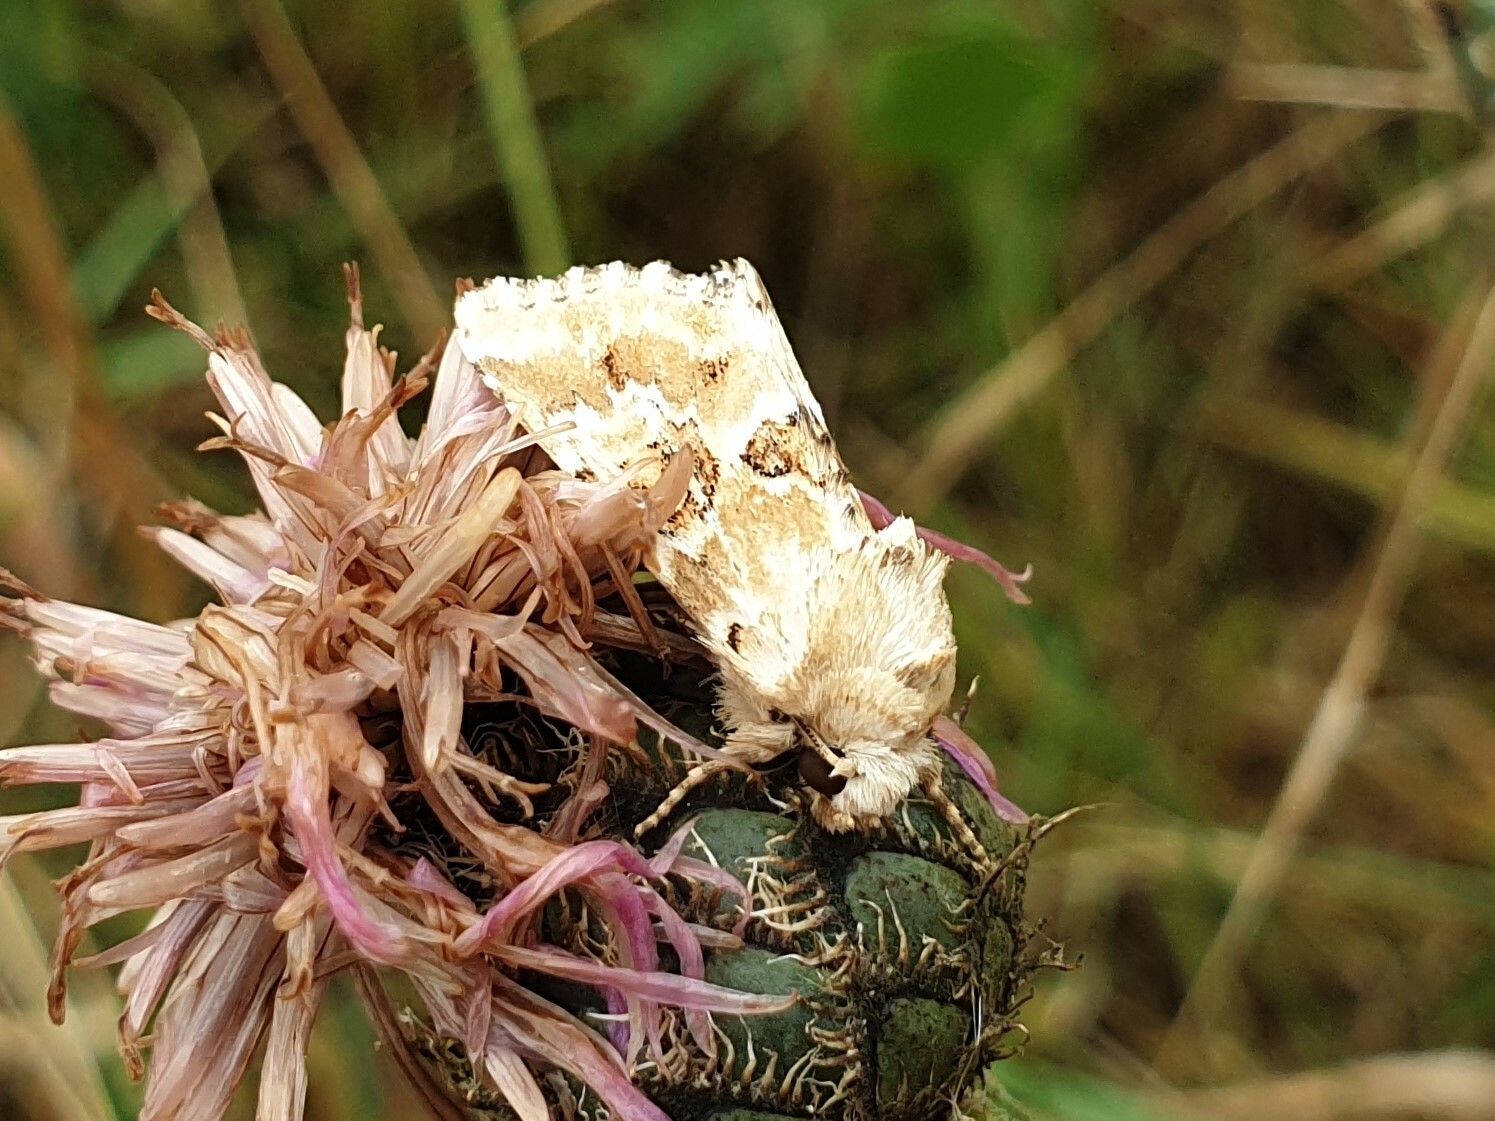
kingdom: Animalia
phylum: Arthropoda
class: Insecta
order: Lepidoptera
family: Noctuidae
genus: Eremobia
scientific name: Eremobia ochroleuca
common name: Dusky sallow
